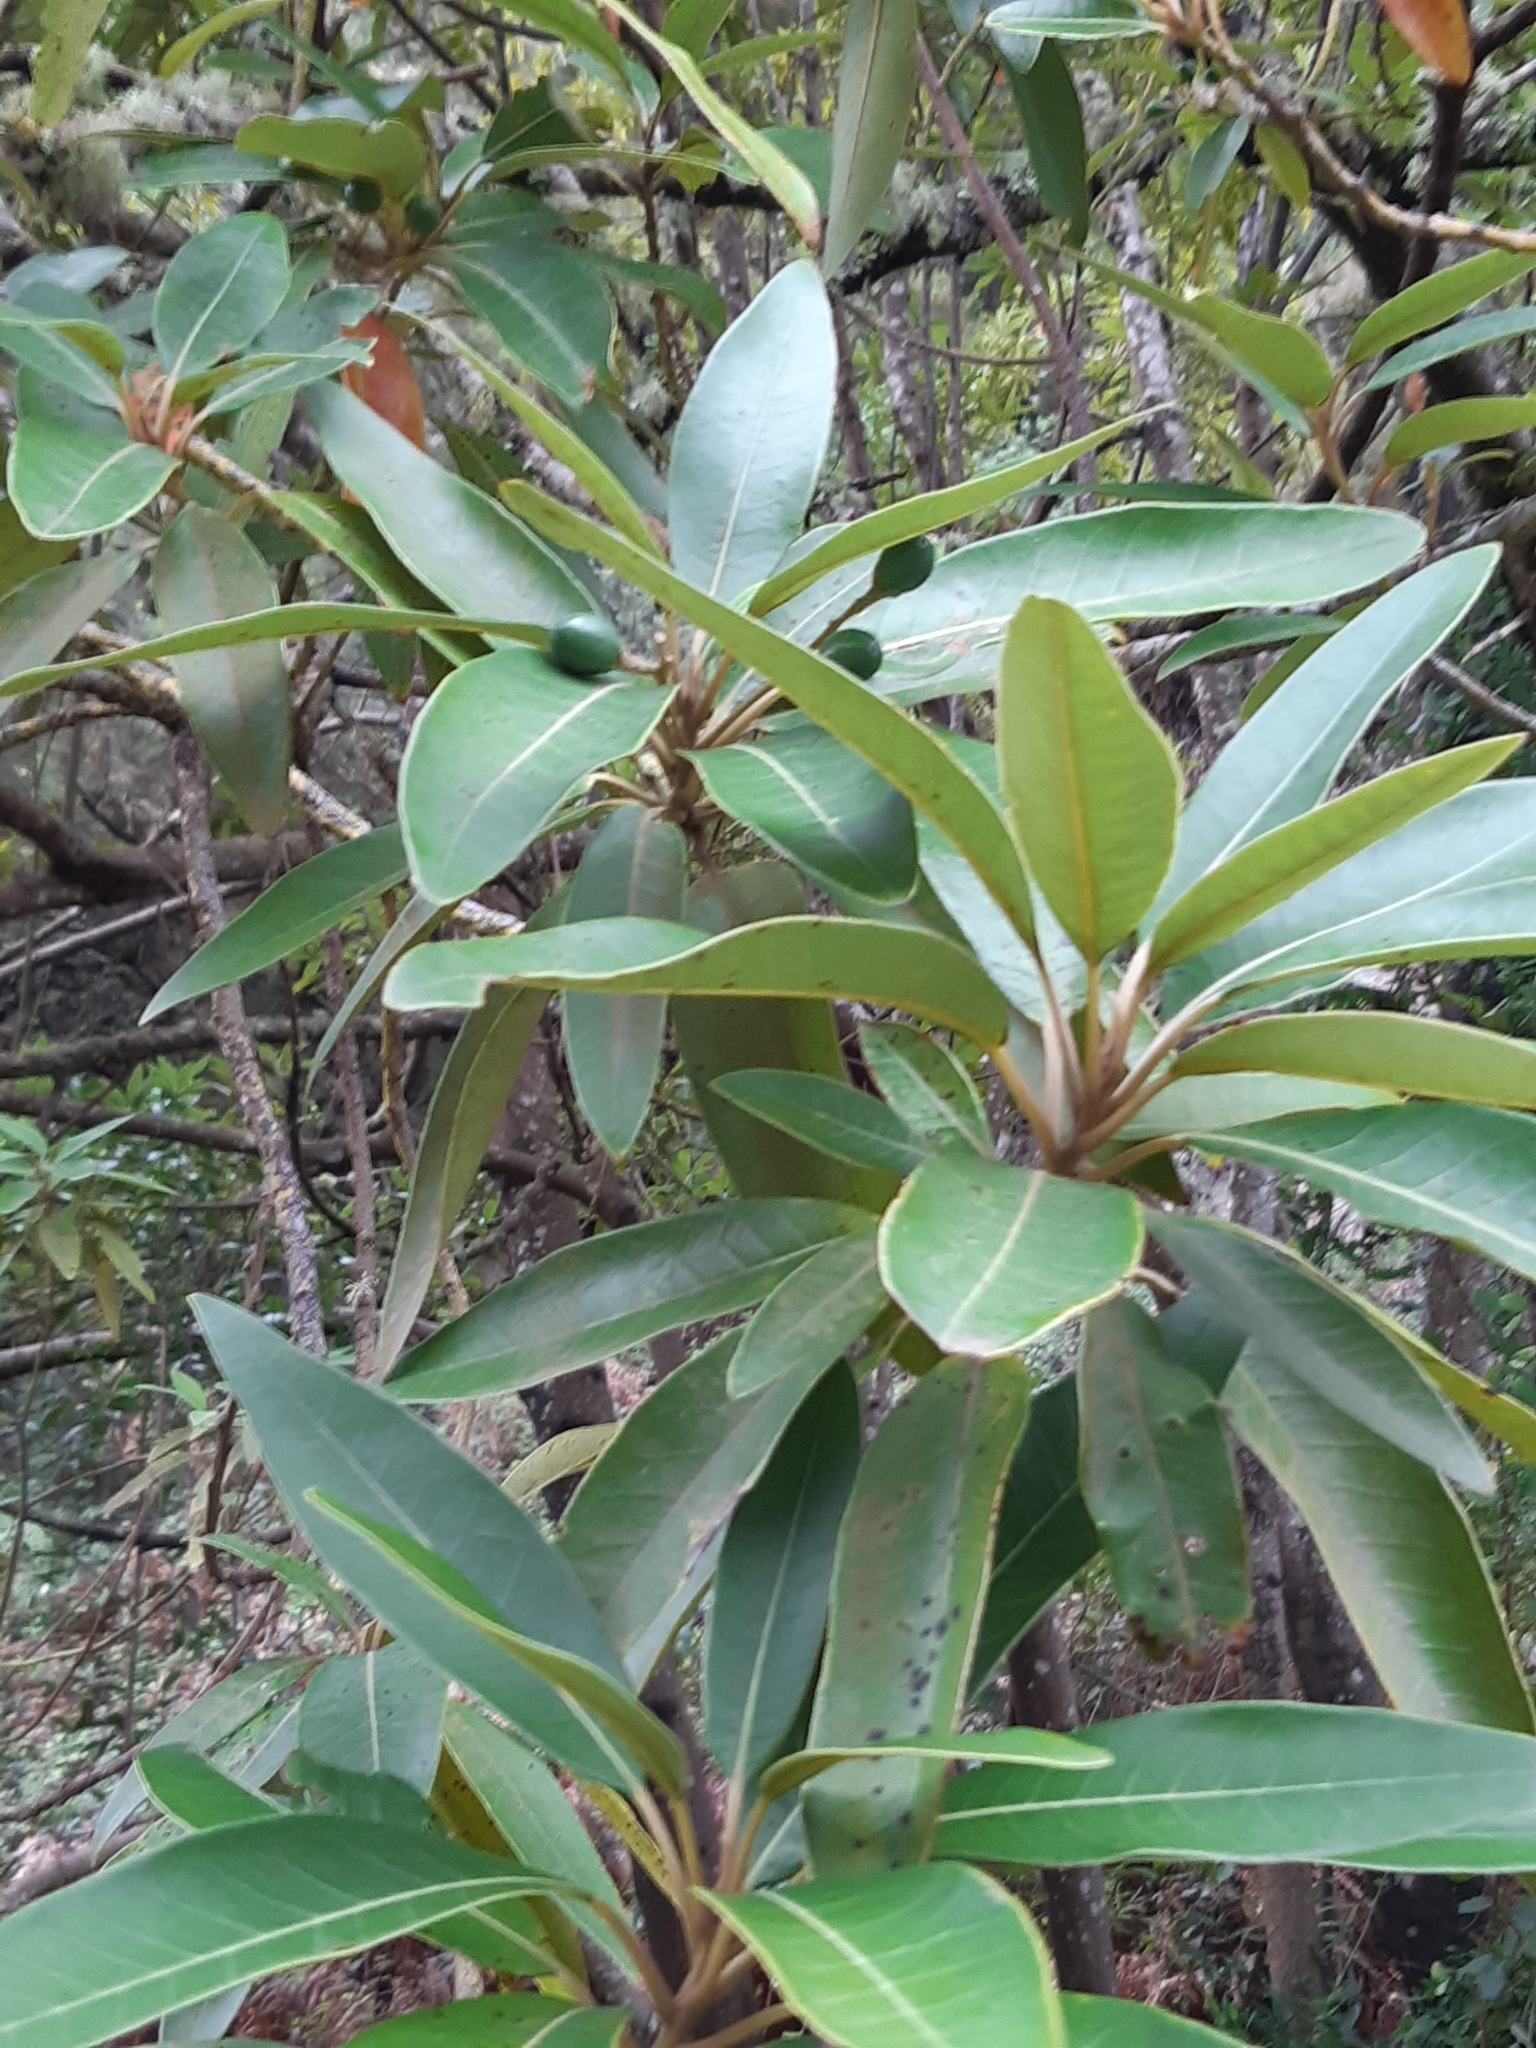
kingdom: Plantae
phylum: Tracheophyta
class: Magnoliopsida
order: Laurales
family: Lauraceae
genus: Persea
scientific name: Persea indica
